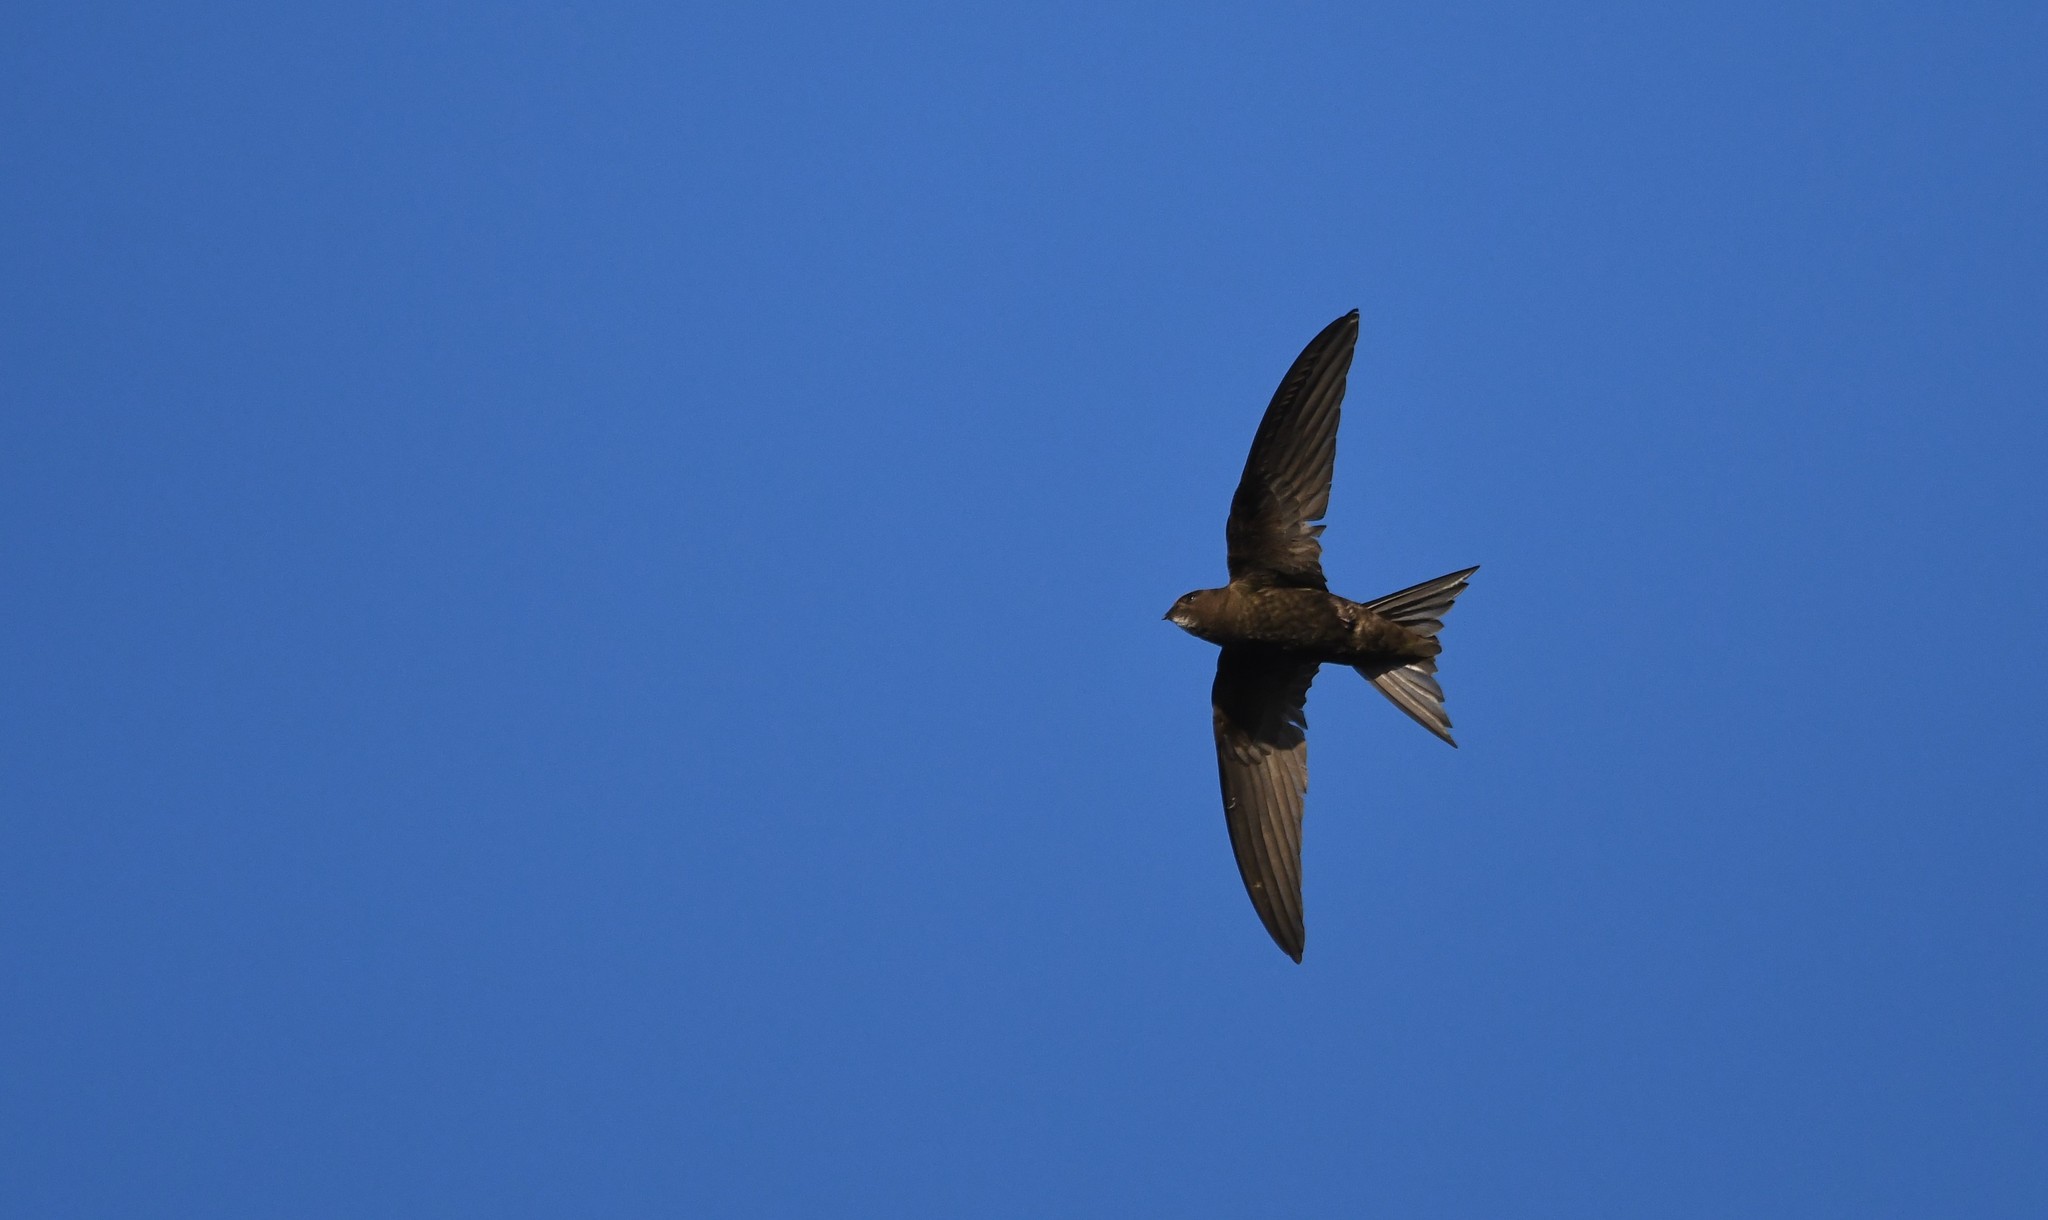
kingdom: Animalia
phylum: Chordata
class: Aves
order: Apodiformes
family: Apodidae
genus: Apus
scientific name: Apus apus
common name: Common swift
